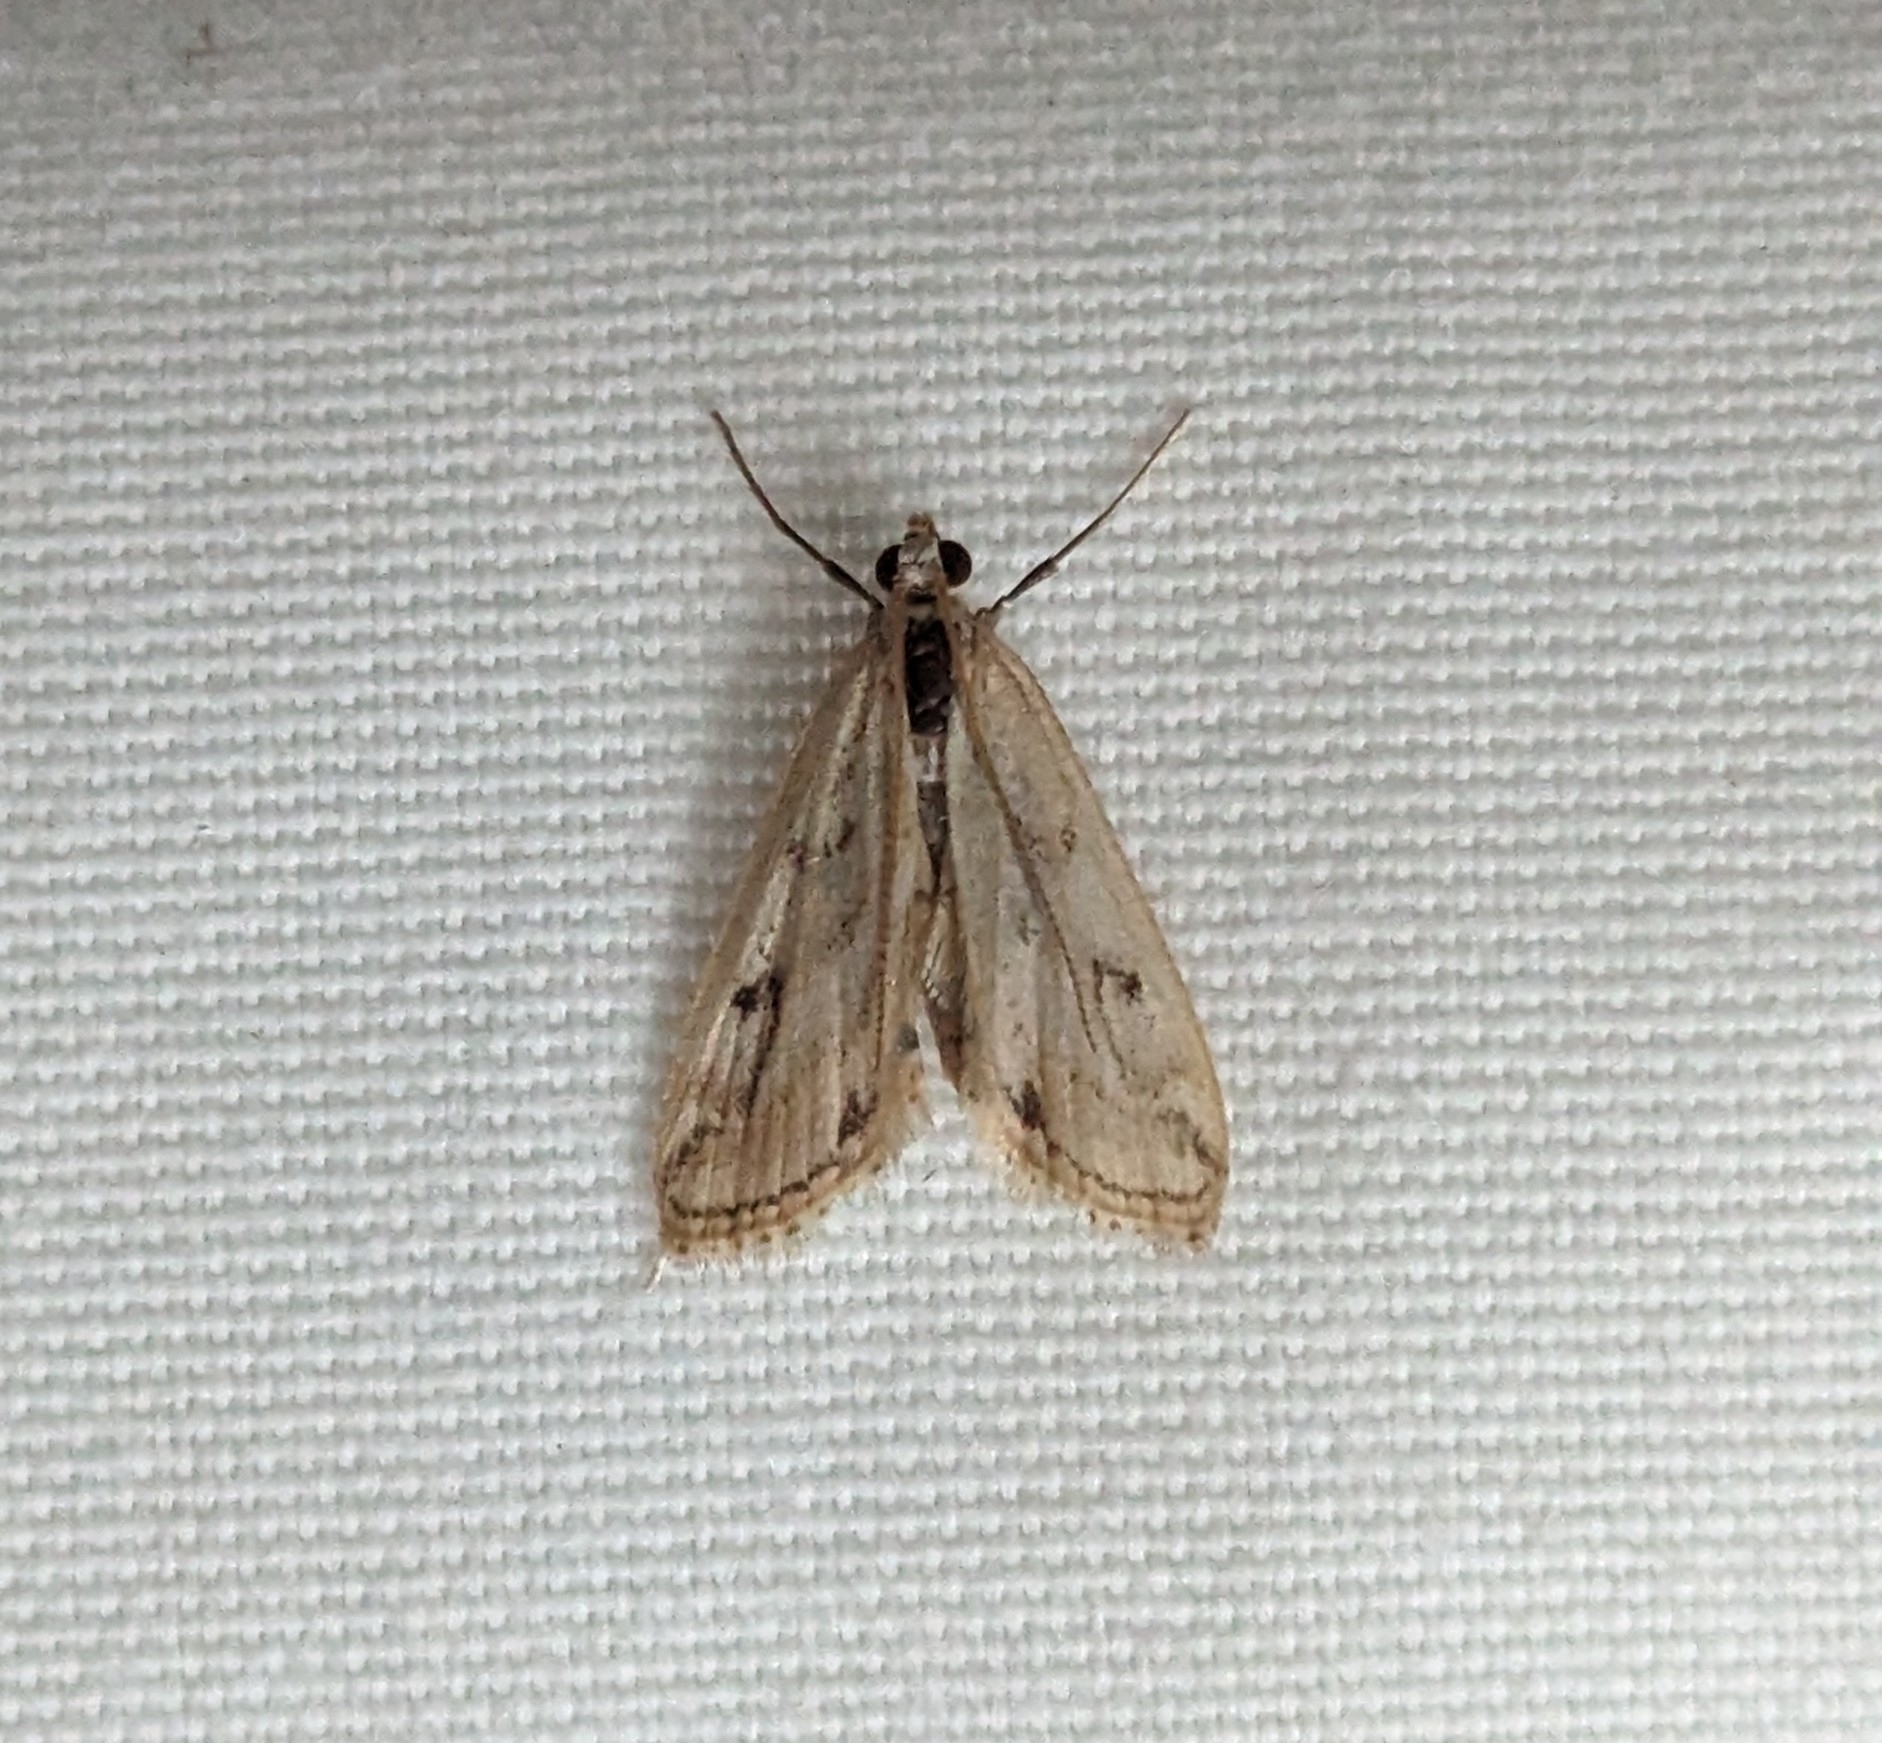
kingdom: Animalia
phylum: Arthropoda
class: Insecta
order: Lepidoptera
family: Crambidae
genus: Parapoynx
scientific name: Parapoynx allionealis
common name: Bladderwort casemaker
